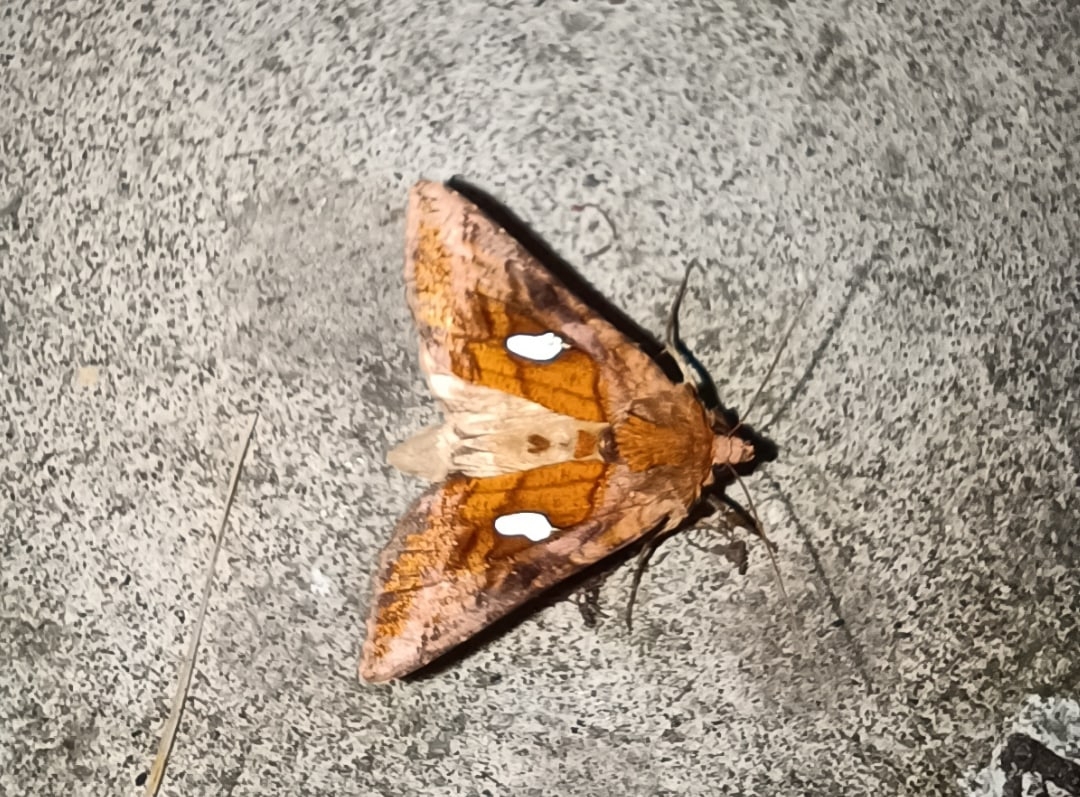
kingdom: Animalia
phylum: Arthropoda
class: Insecta
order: Lepidoptera
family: Noctuidae
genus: Autographa
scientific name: Autographa excelsa
